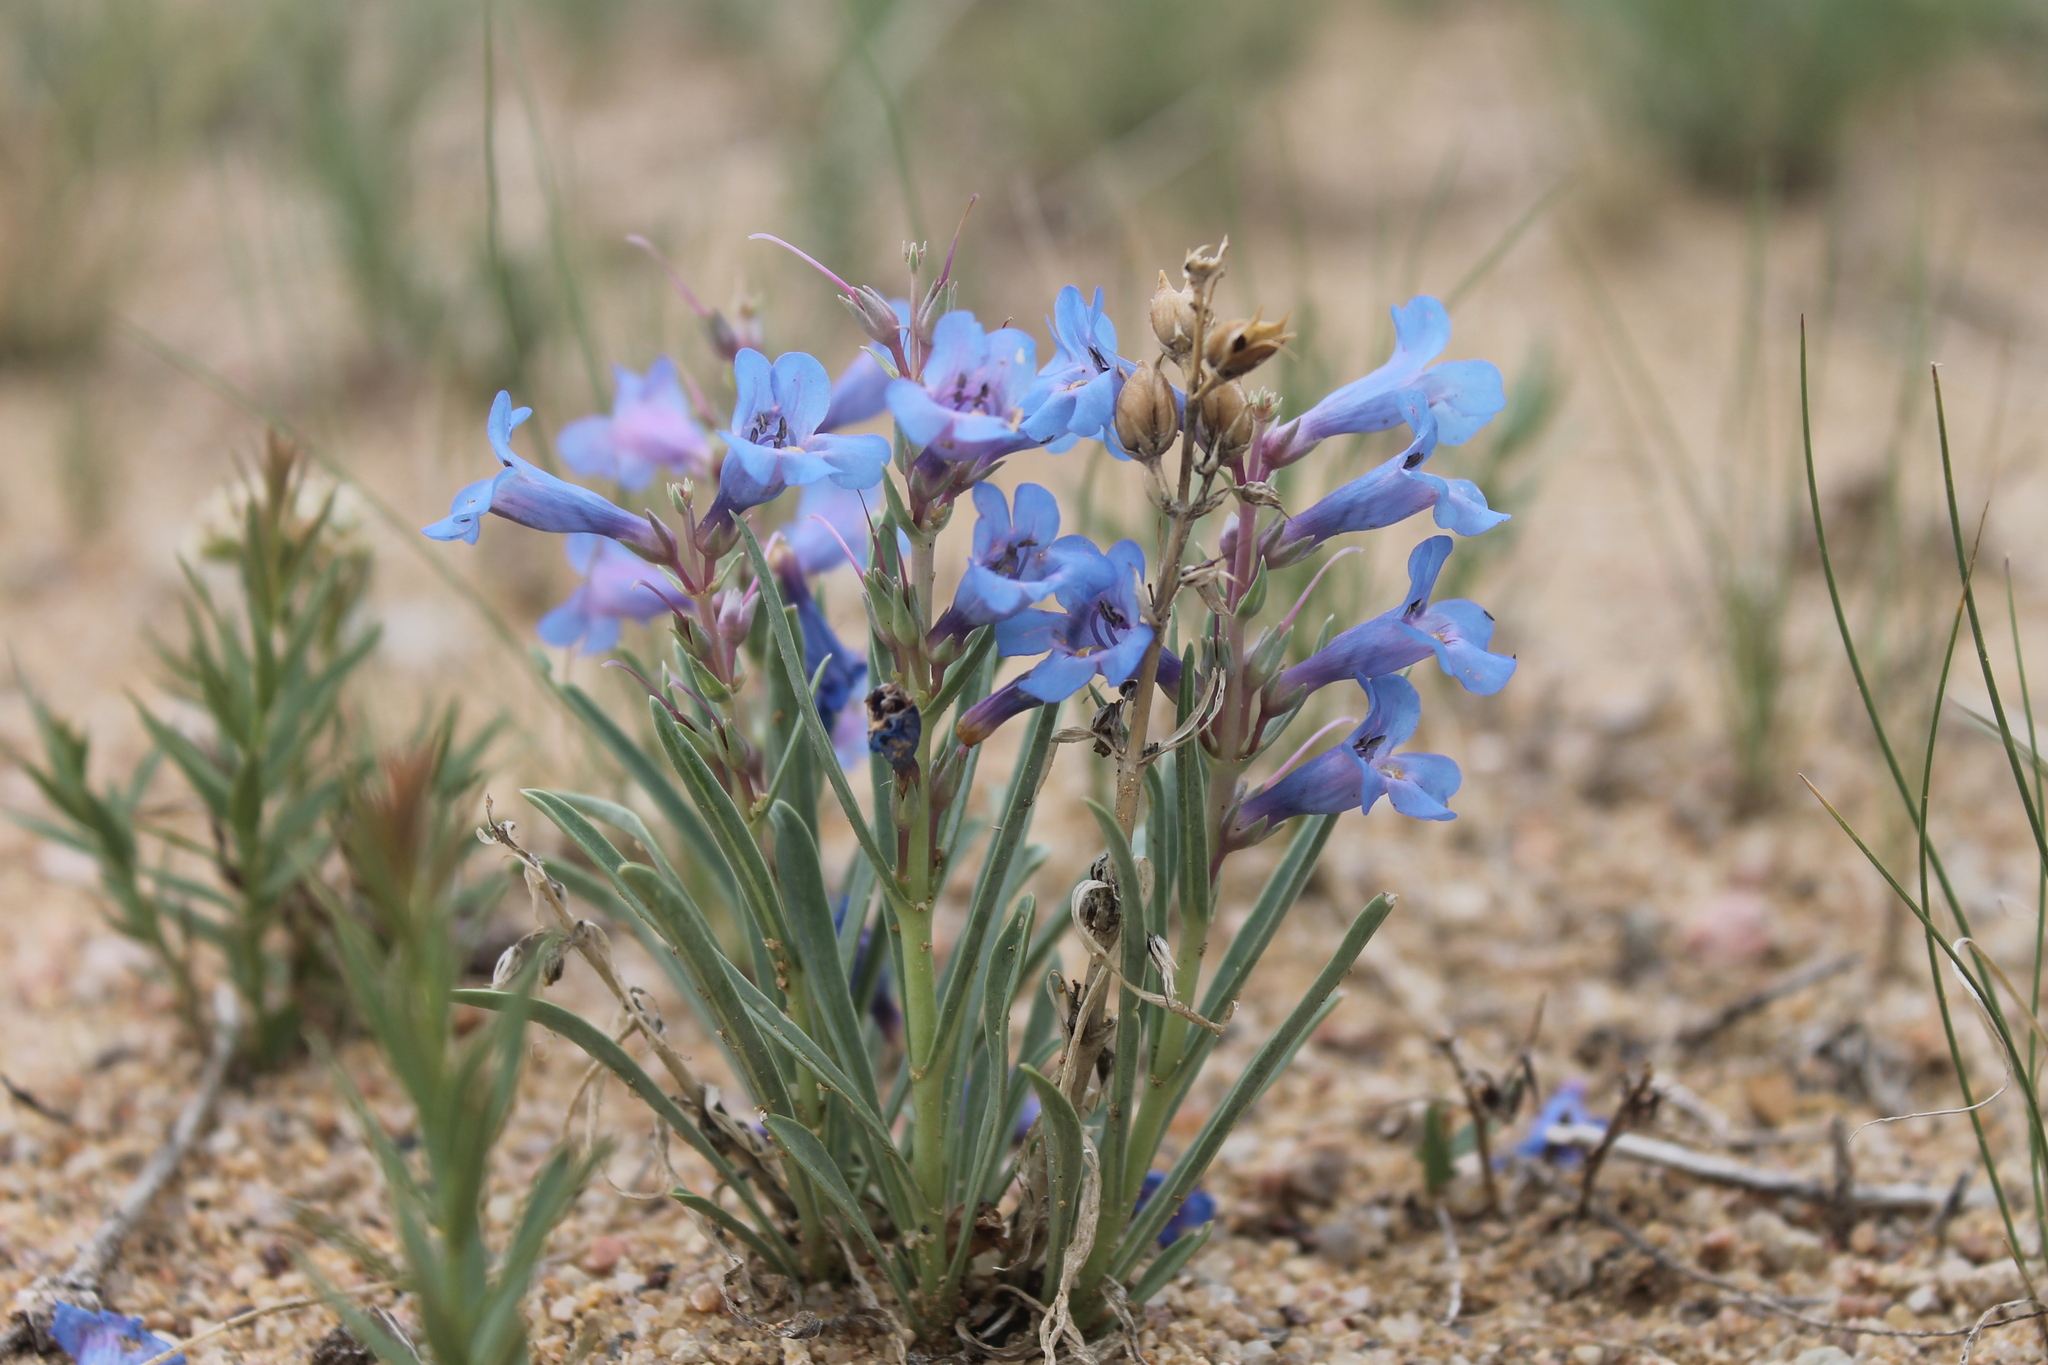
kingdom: Plantae
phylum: Tracheophyta
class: Magnoliopsida
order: Lamiales
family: Plantaginaceae
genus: Penstemon
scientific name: Penstemon angustifolius
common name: Narrow beardtongue
